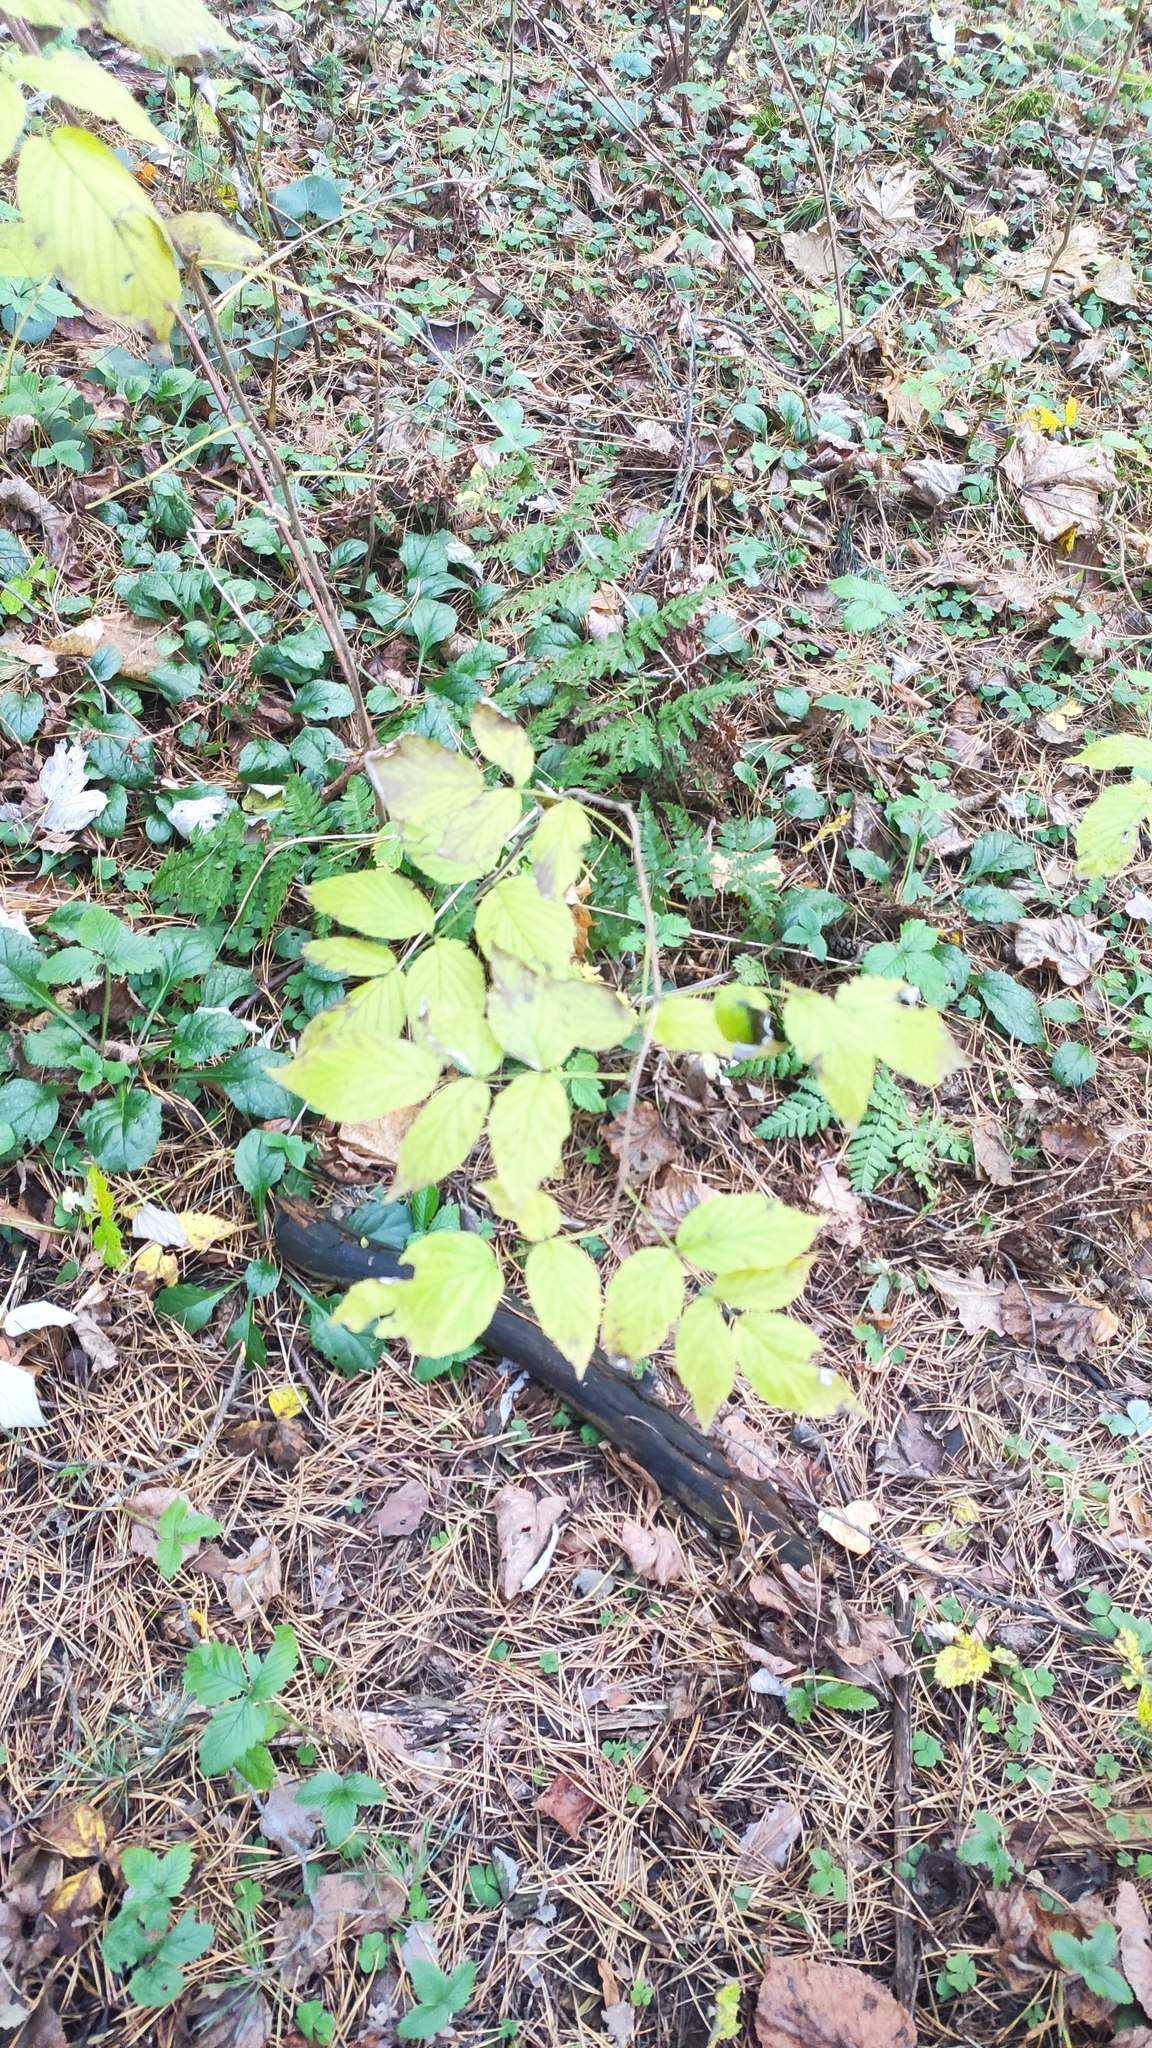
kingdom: Plantae
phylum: Tracheophyta
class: Magnoliopsida
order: Rosales
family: Rosaceae
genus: Rubus
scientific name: Rubus idaeus
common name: Raspberry
